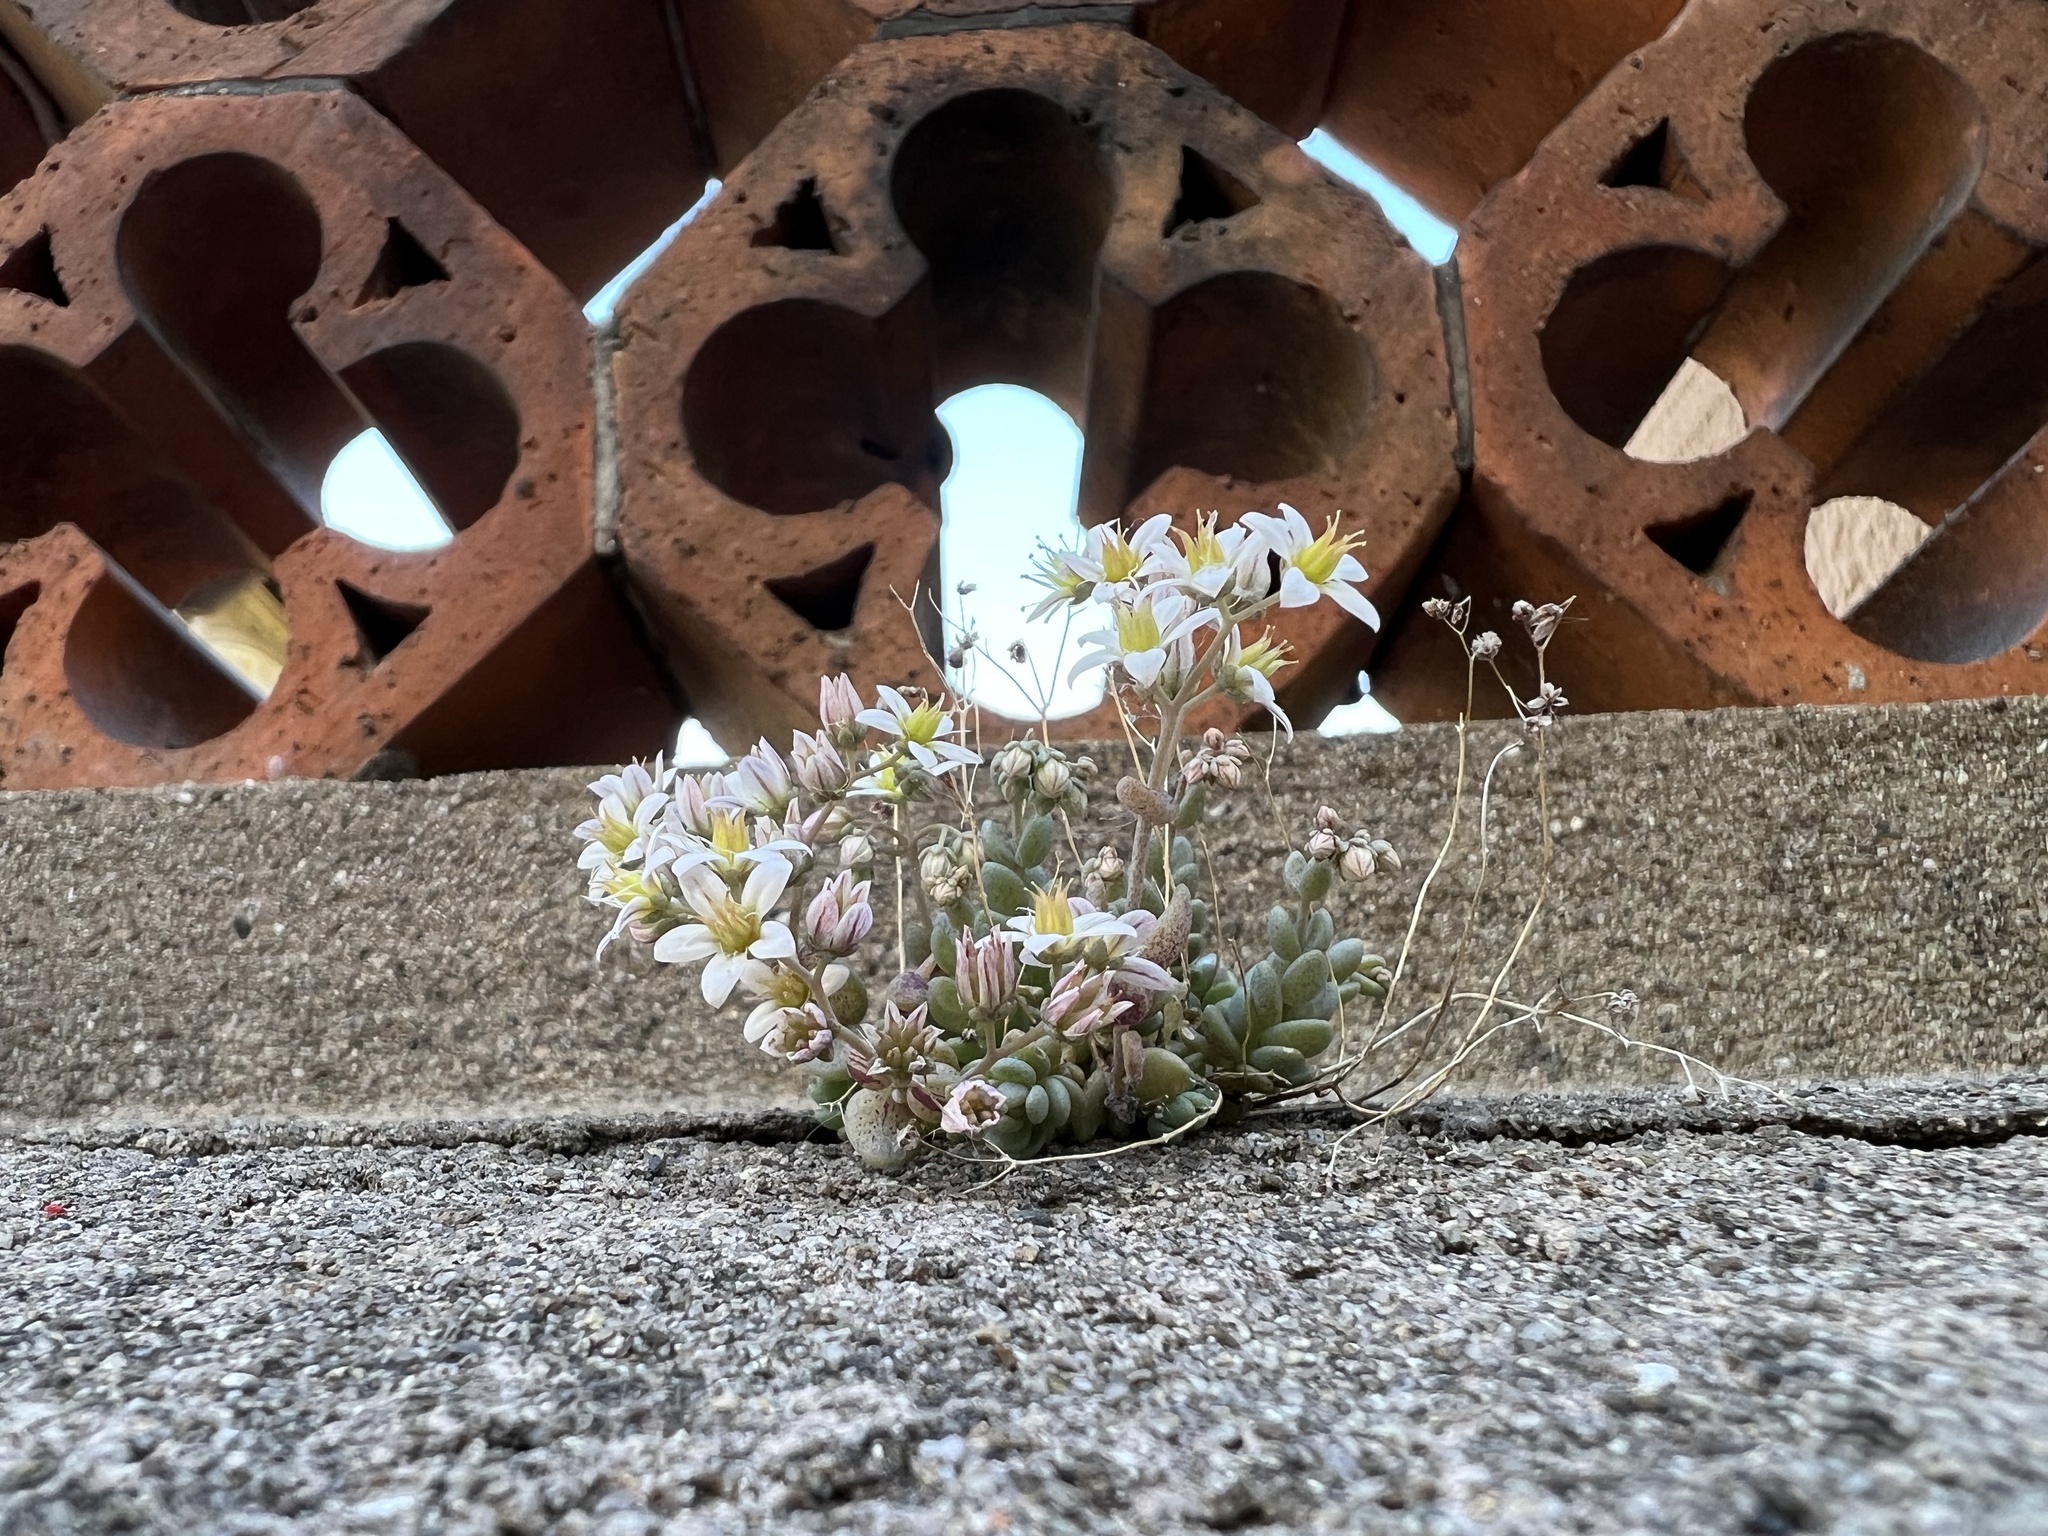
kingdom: Plantae
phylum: Tracheophyta
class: Magnoliopsida
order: Saxifragales
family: Crassulaceae
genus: Sedum
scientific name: Sedum dasyphyllum
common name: Thick-leaf stonecrop
